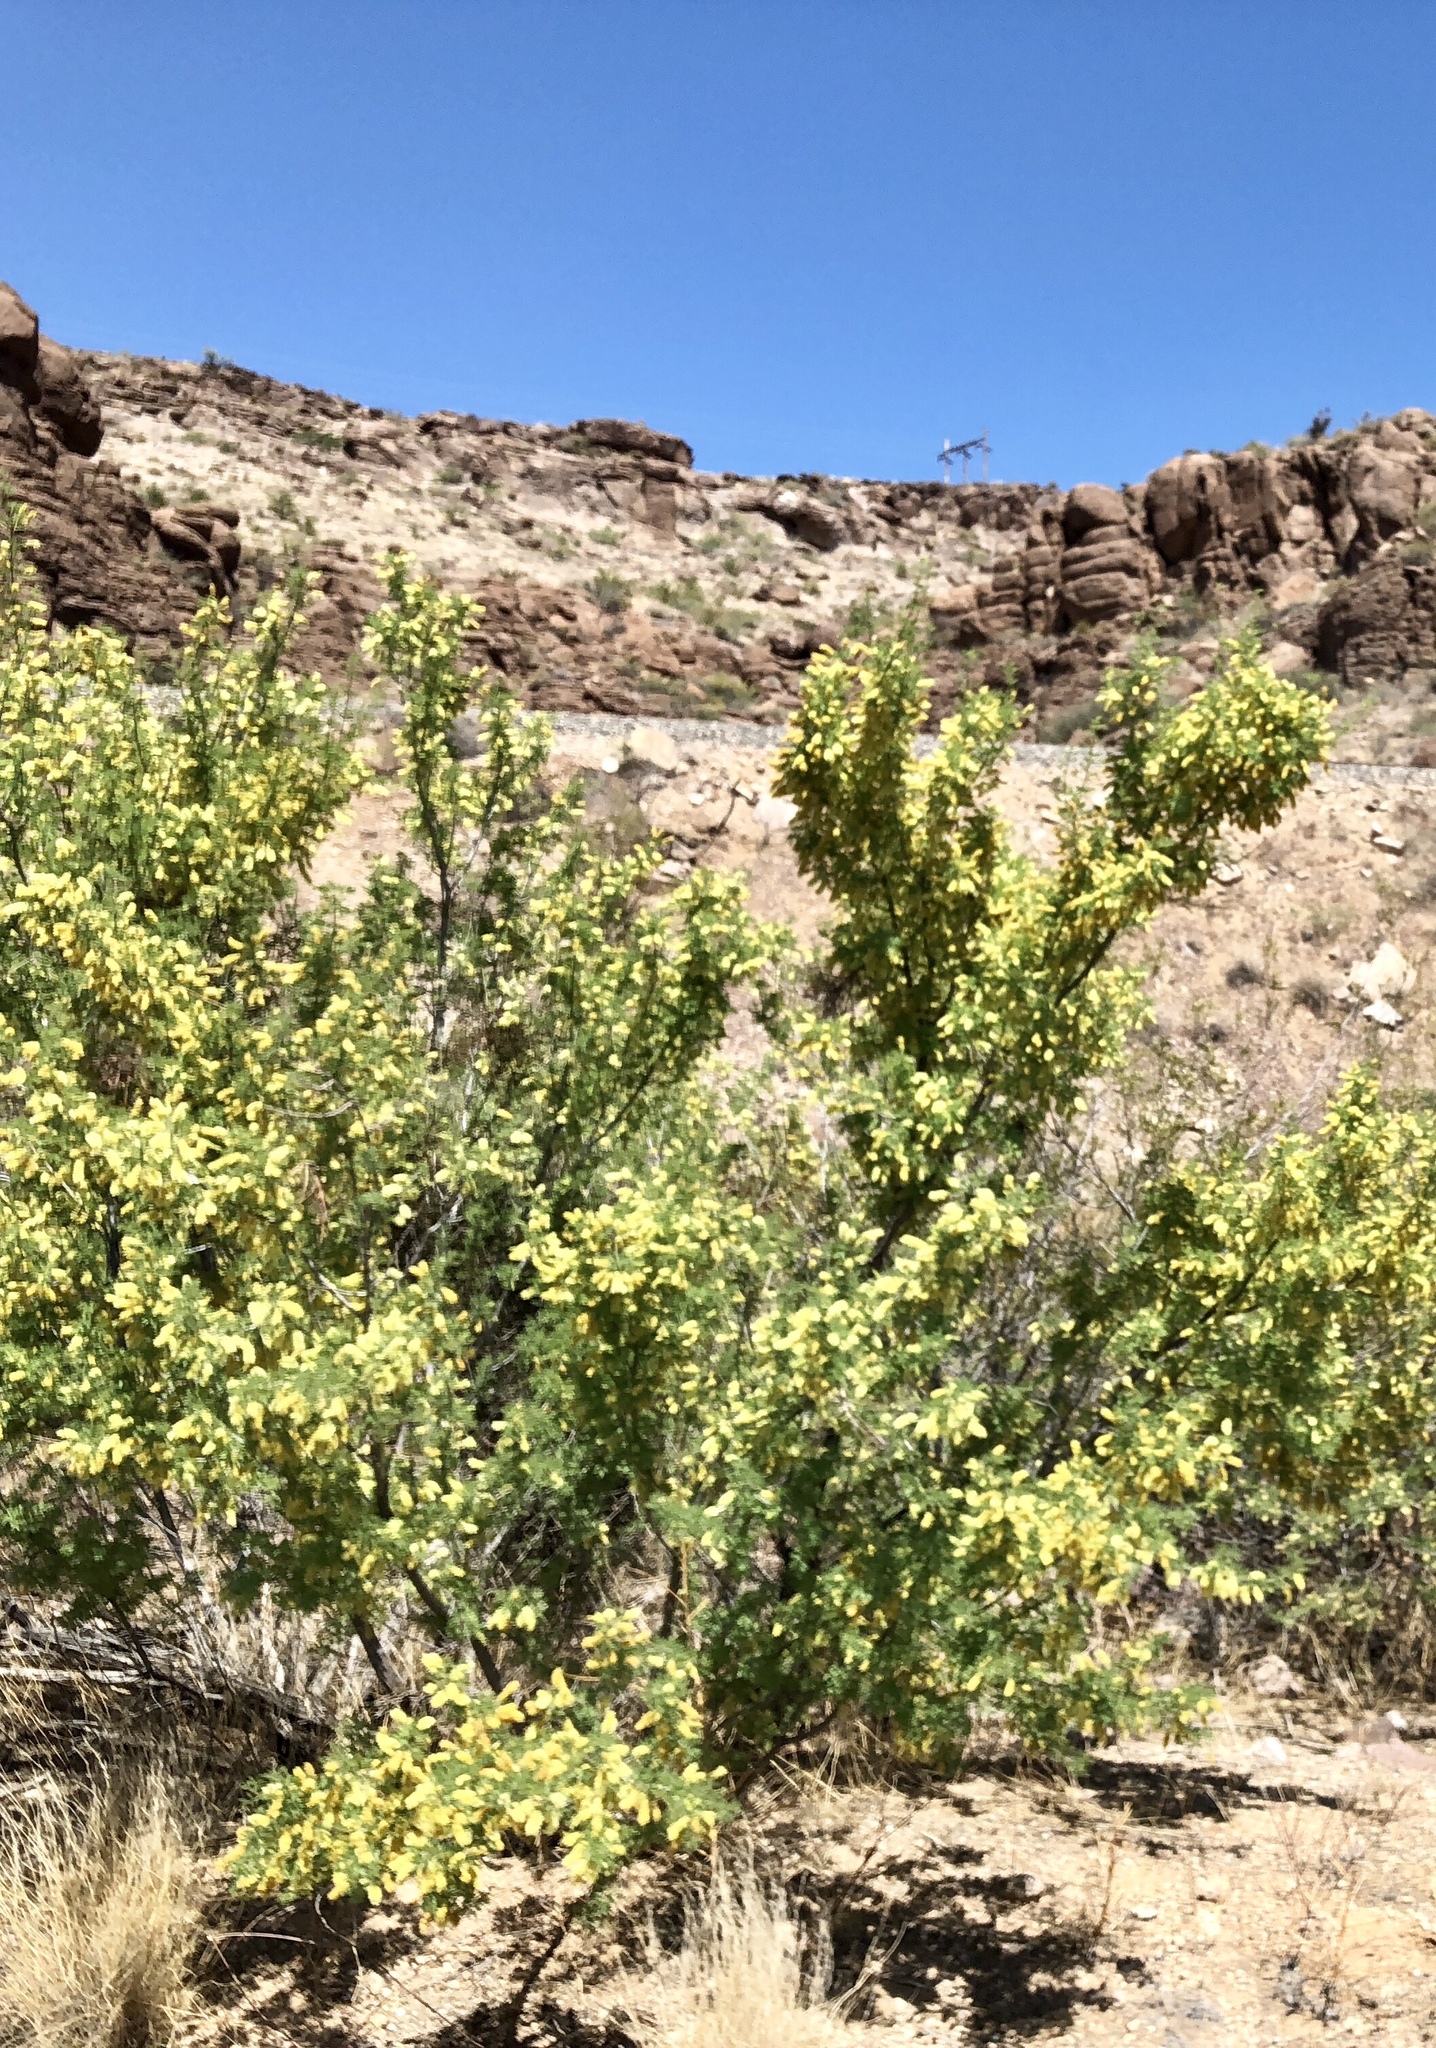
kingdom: Plantae
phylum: Tracheophyta
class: Magnoliopsida
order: Zygophyllales
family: Zygophyllaceae
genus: Larrea
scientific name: Larrea tridentata
